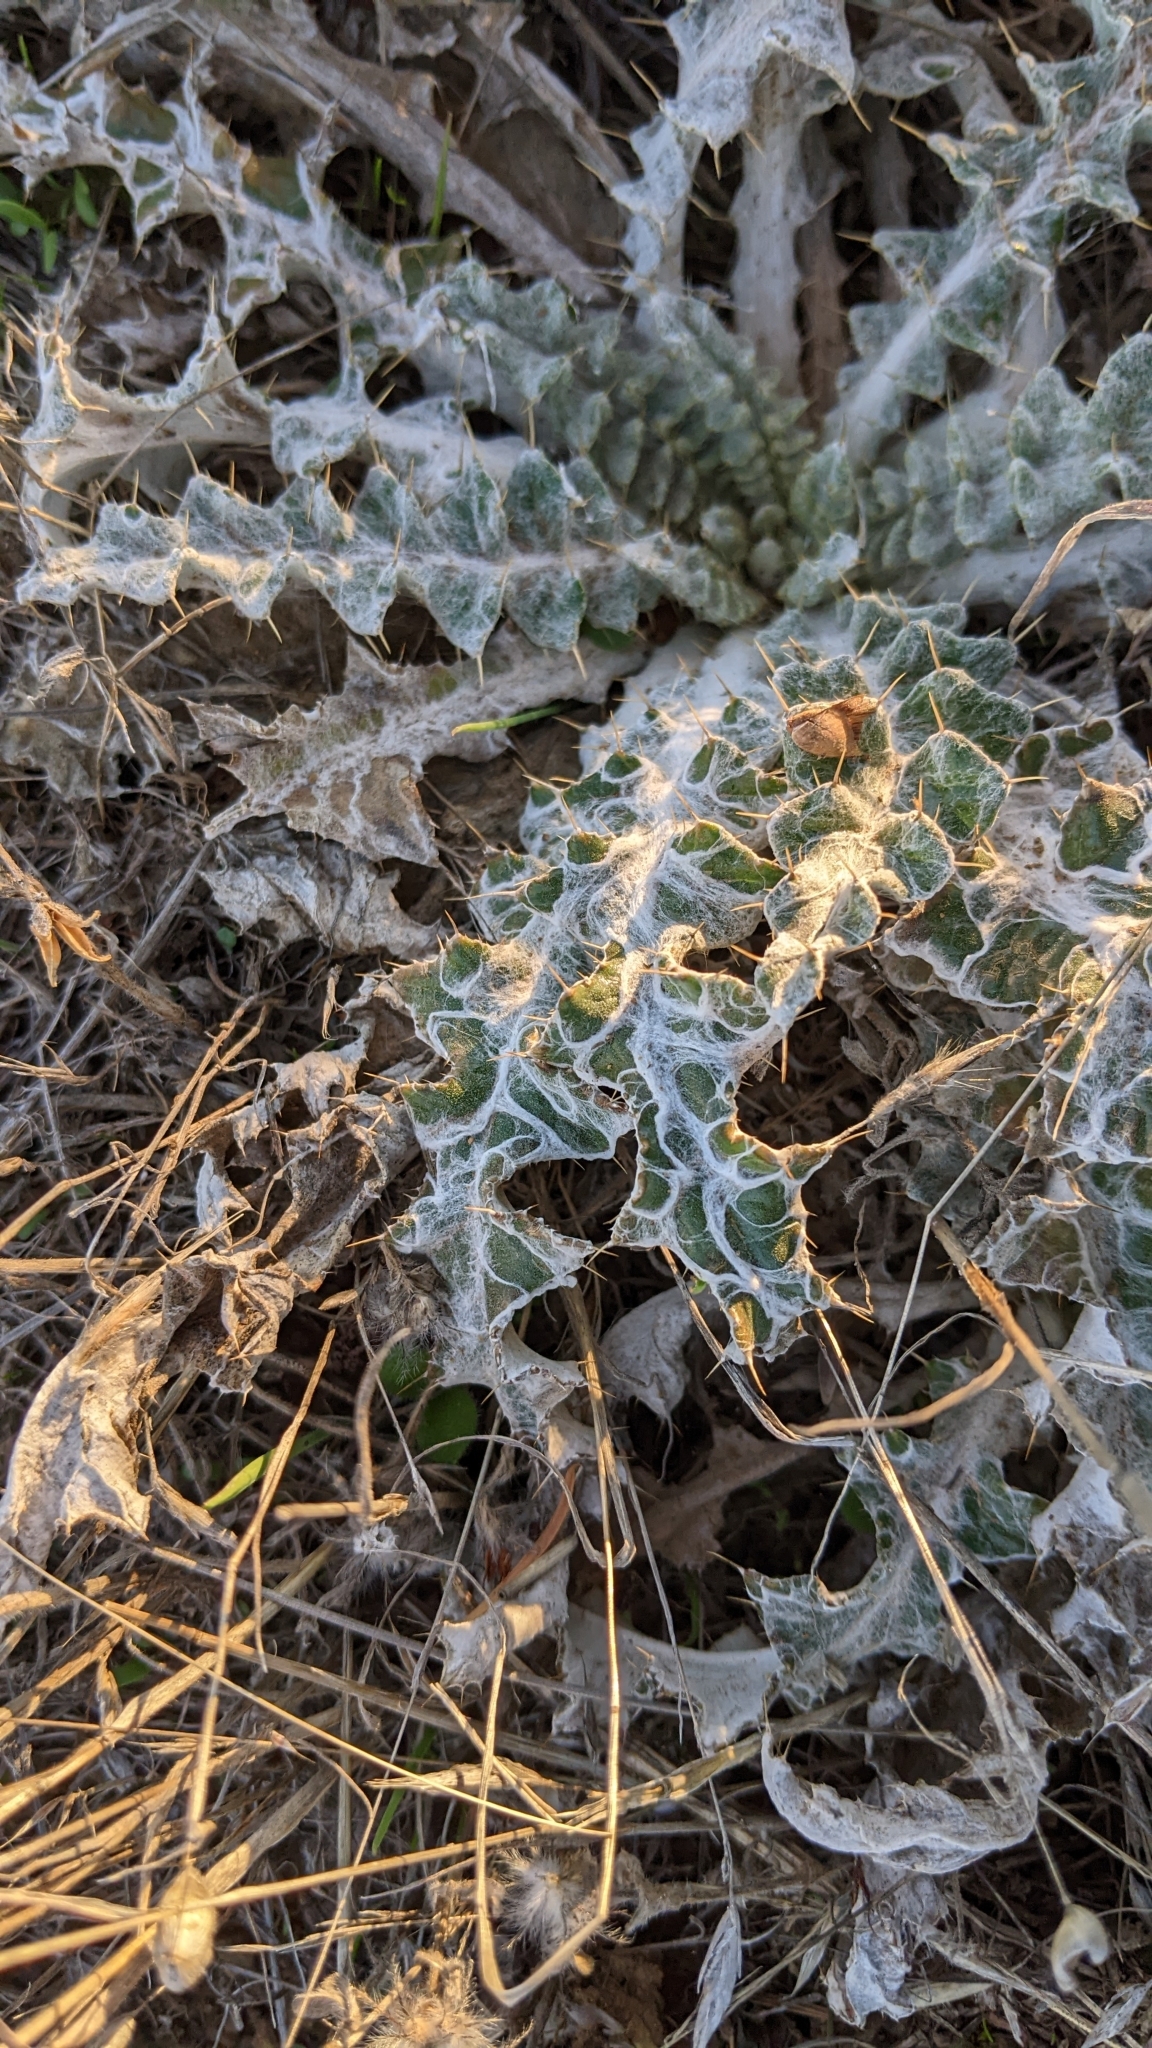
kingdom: Plantae
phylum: Tracheophyta
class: Magnoliopsida
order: Asterales
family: Asteraceae
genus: Cirsium
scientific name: Cirsium occidentale
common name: Western thistle
